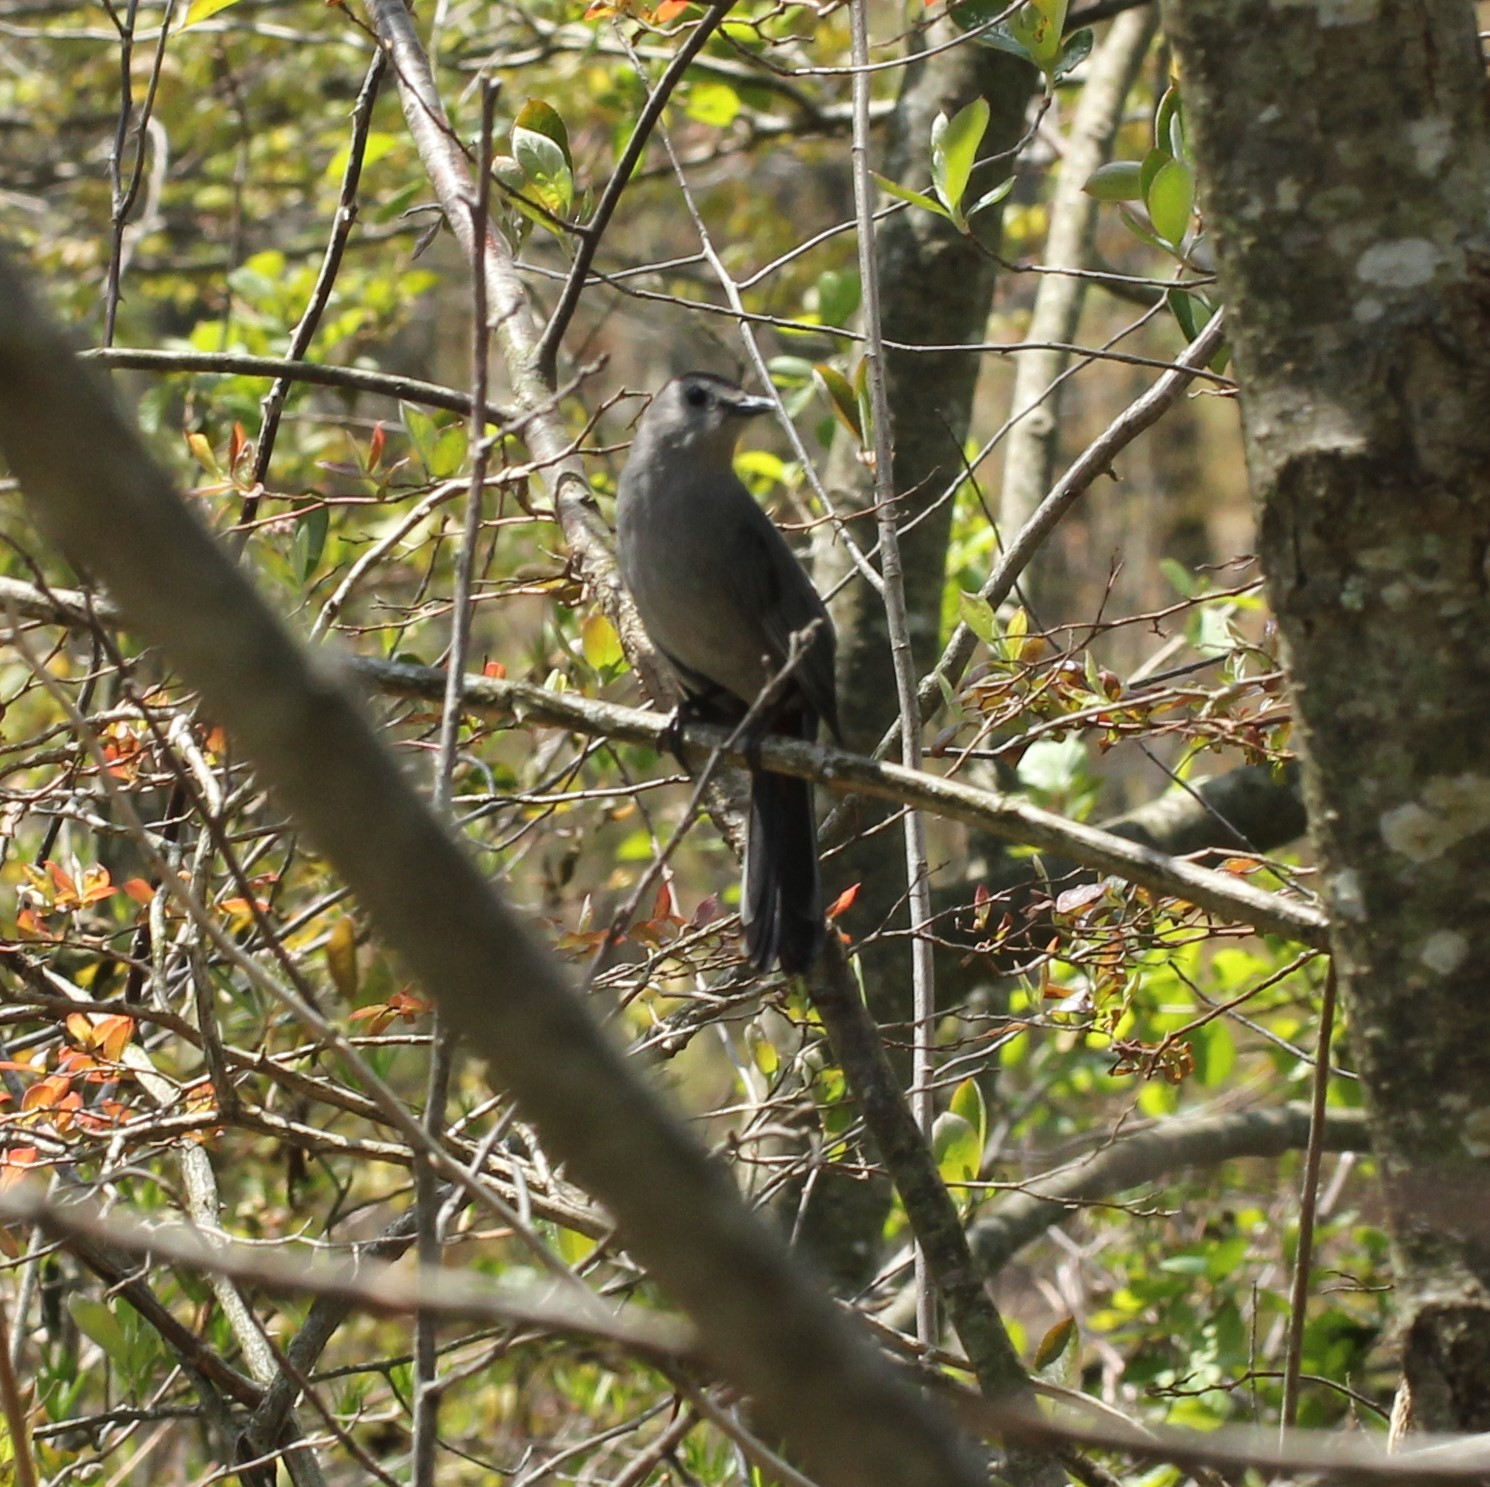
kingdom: Animalia
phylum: Chordata
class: Aves
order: Passeriformes
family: Mimidae
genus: Dumetella
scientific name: Dumetella carolinensis
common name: Gray catbird
